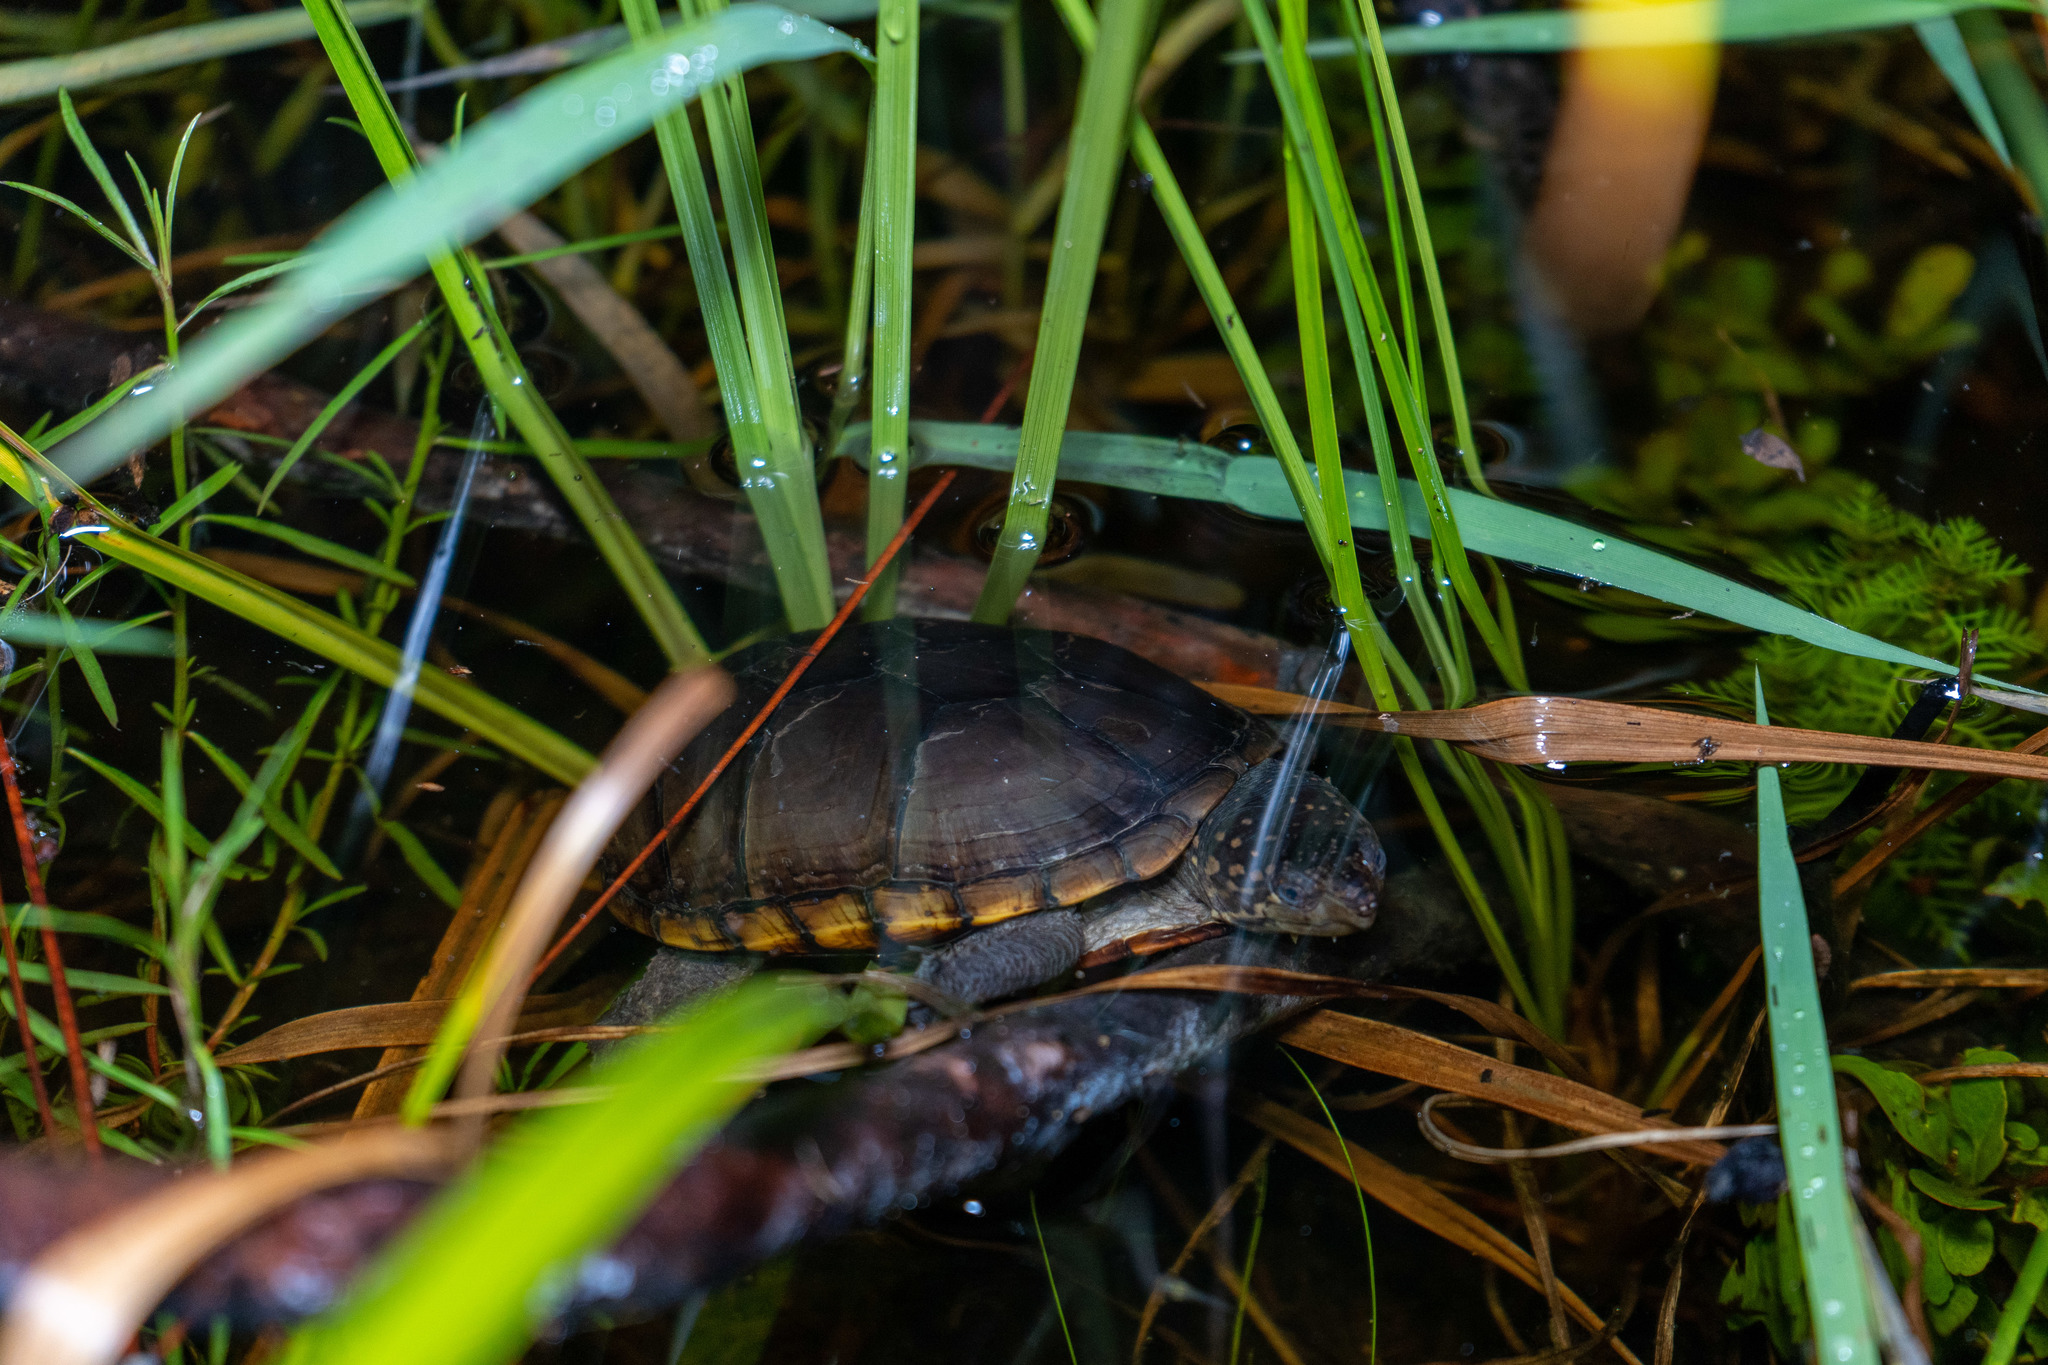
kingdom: Animalia
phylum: Chordata
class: Testudines
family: Kinosternidae
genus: Kinosternon
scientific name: Kinosternon subrubrum
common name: Eastern mud turtle
